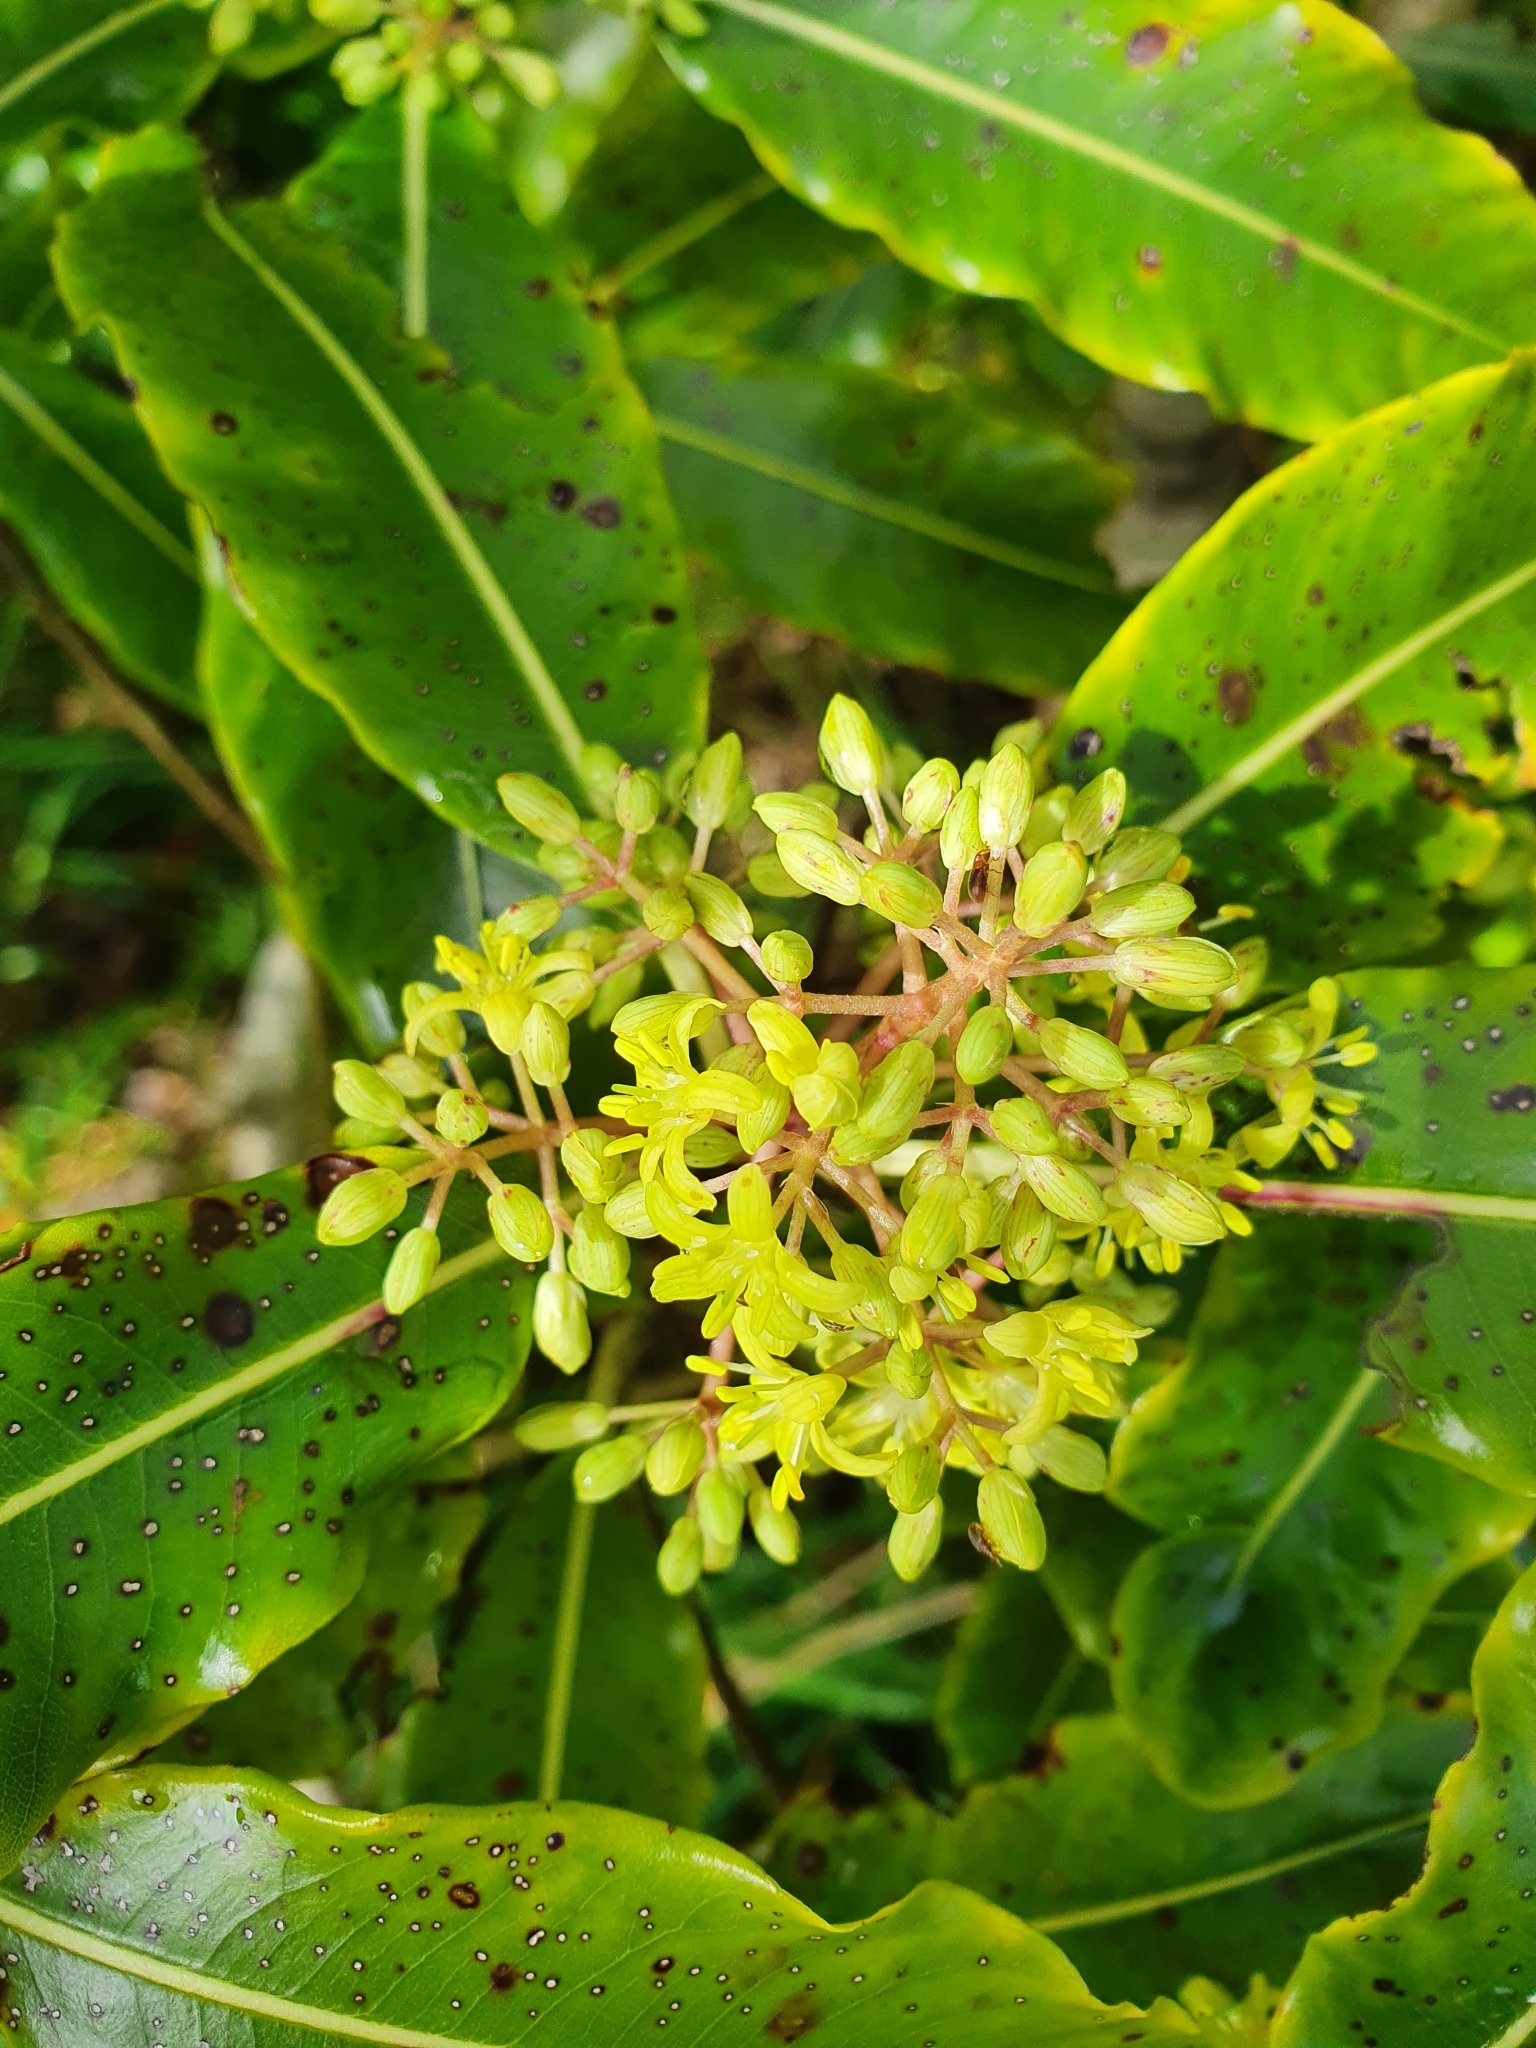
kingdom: Plantae
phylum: Tracheophyta
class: Magnoliopsida
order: Apiales
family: Pittosporaceae
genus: Pittosporum
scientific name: Pittosporum eugenioides
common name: Lemonwood
